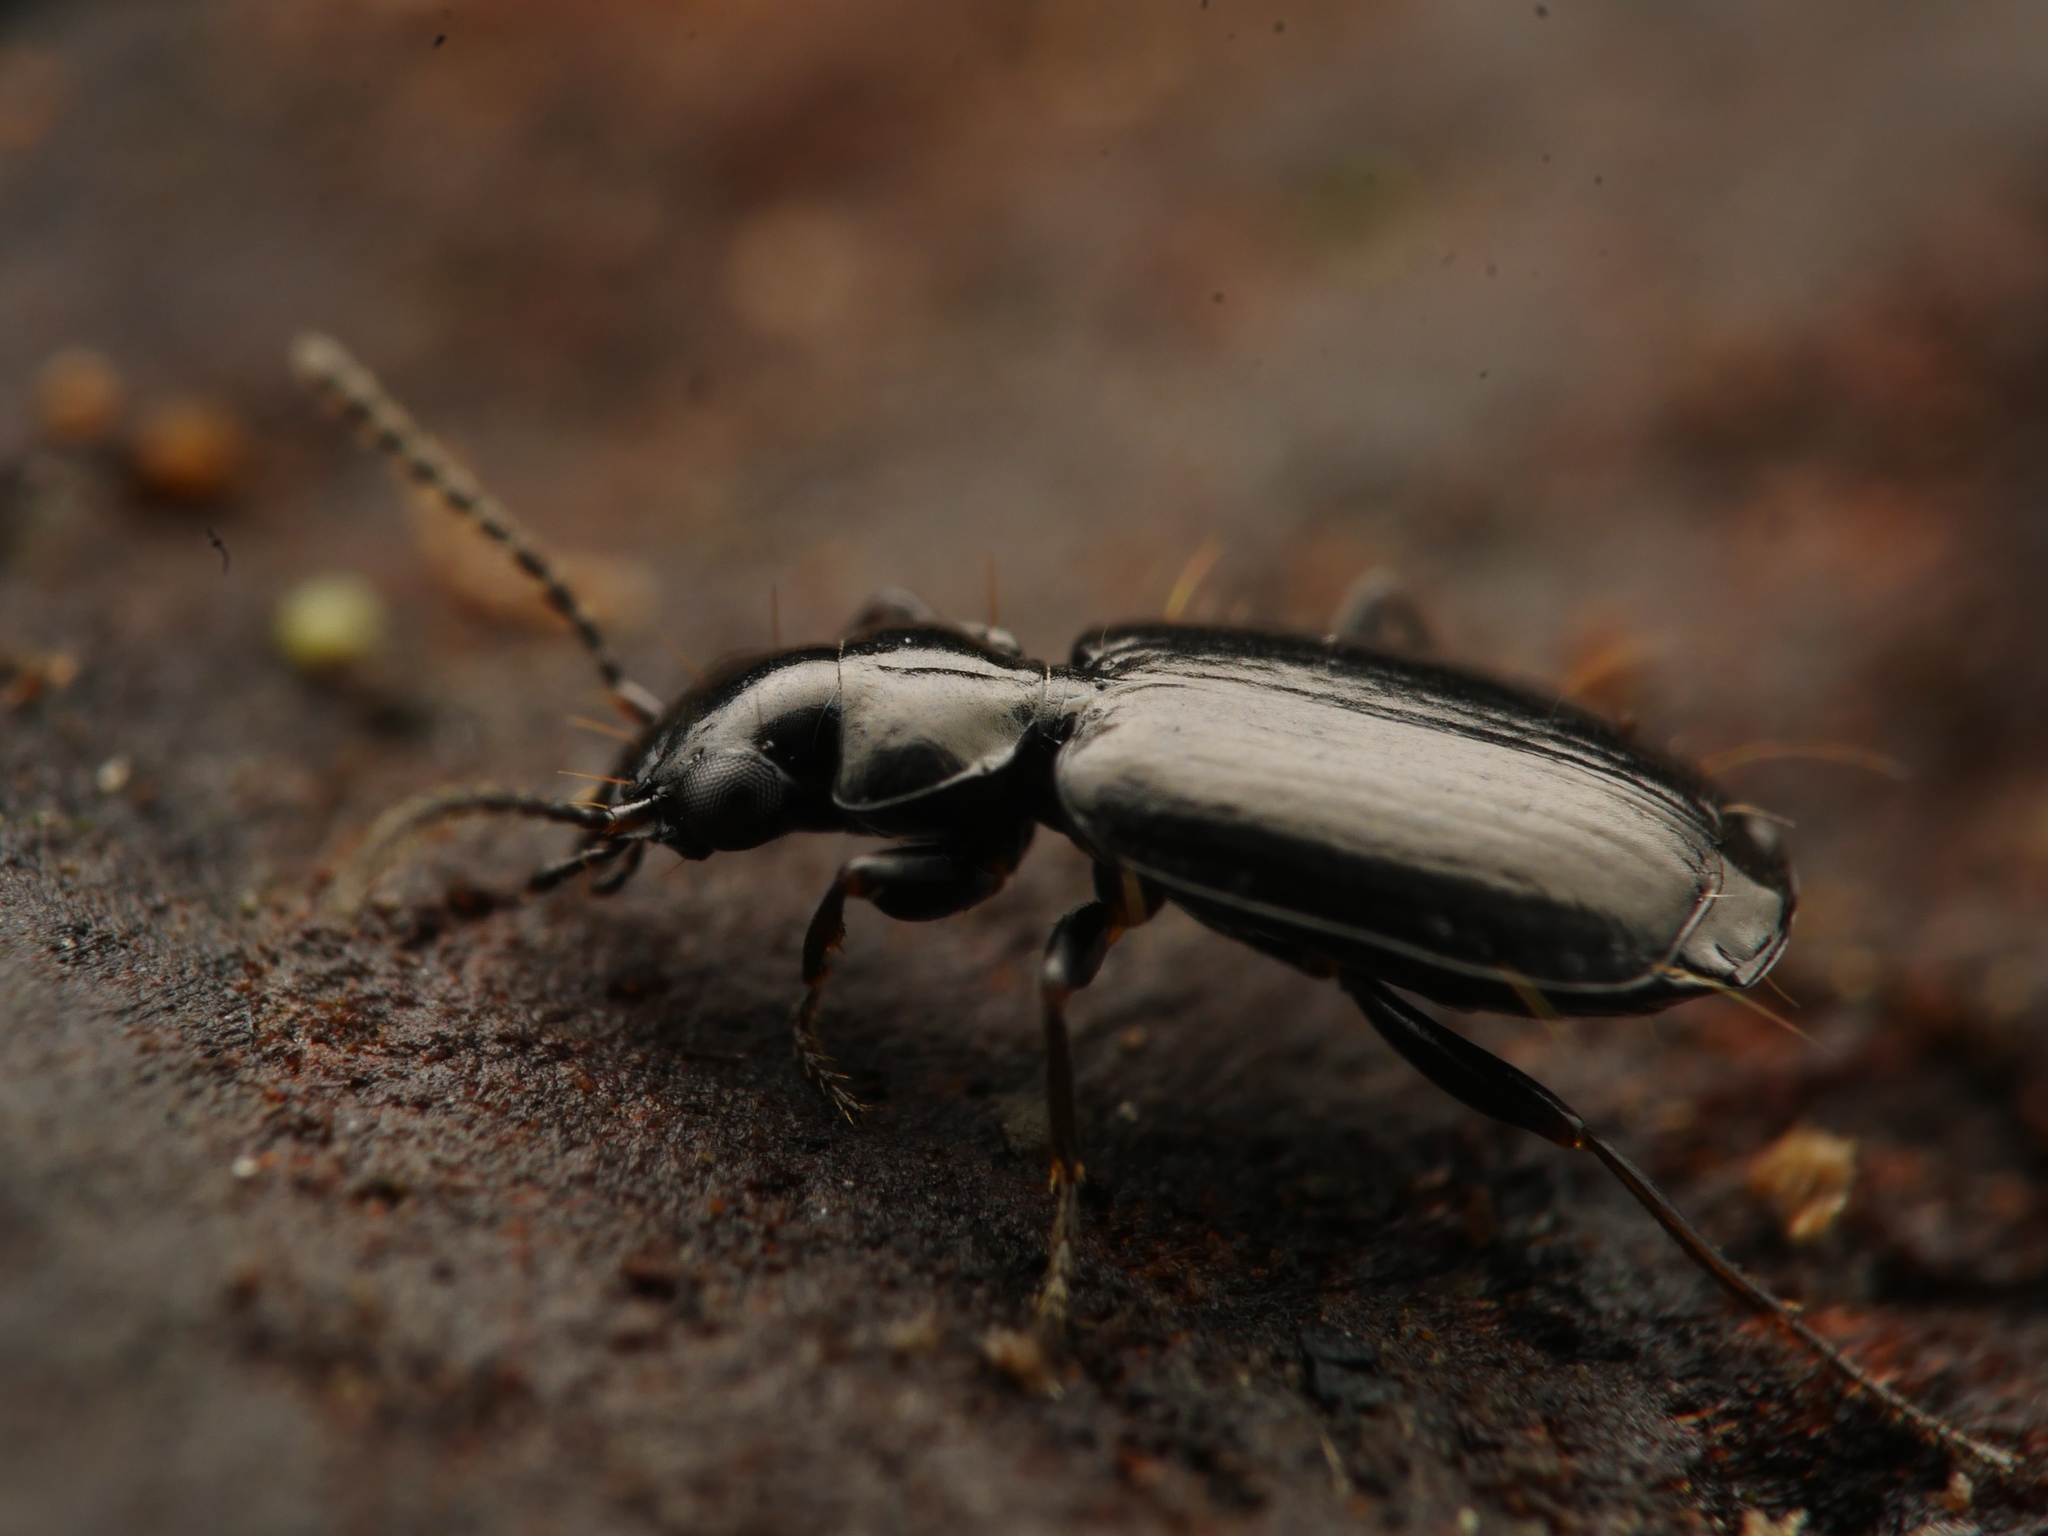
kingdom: Animalia
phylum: Arthropoda
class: Insecta
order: Coleoptera
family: Carabidae
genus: Syntomus
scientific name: Syntomus truncatellus
